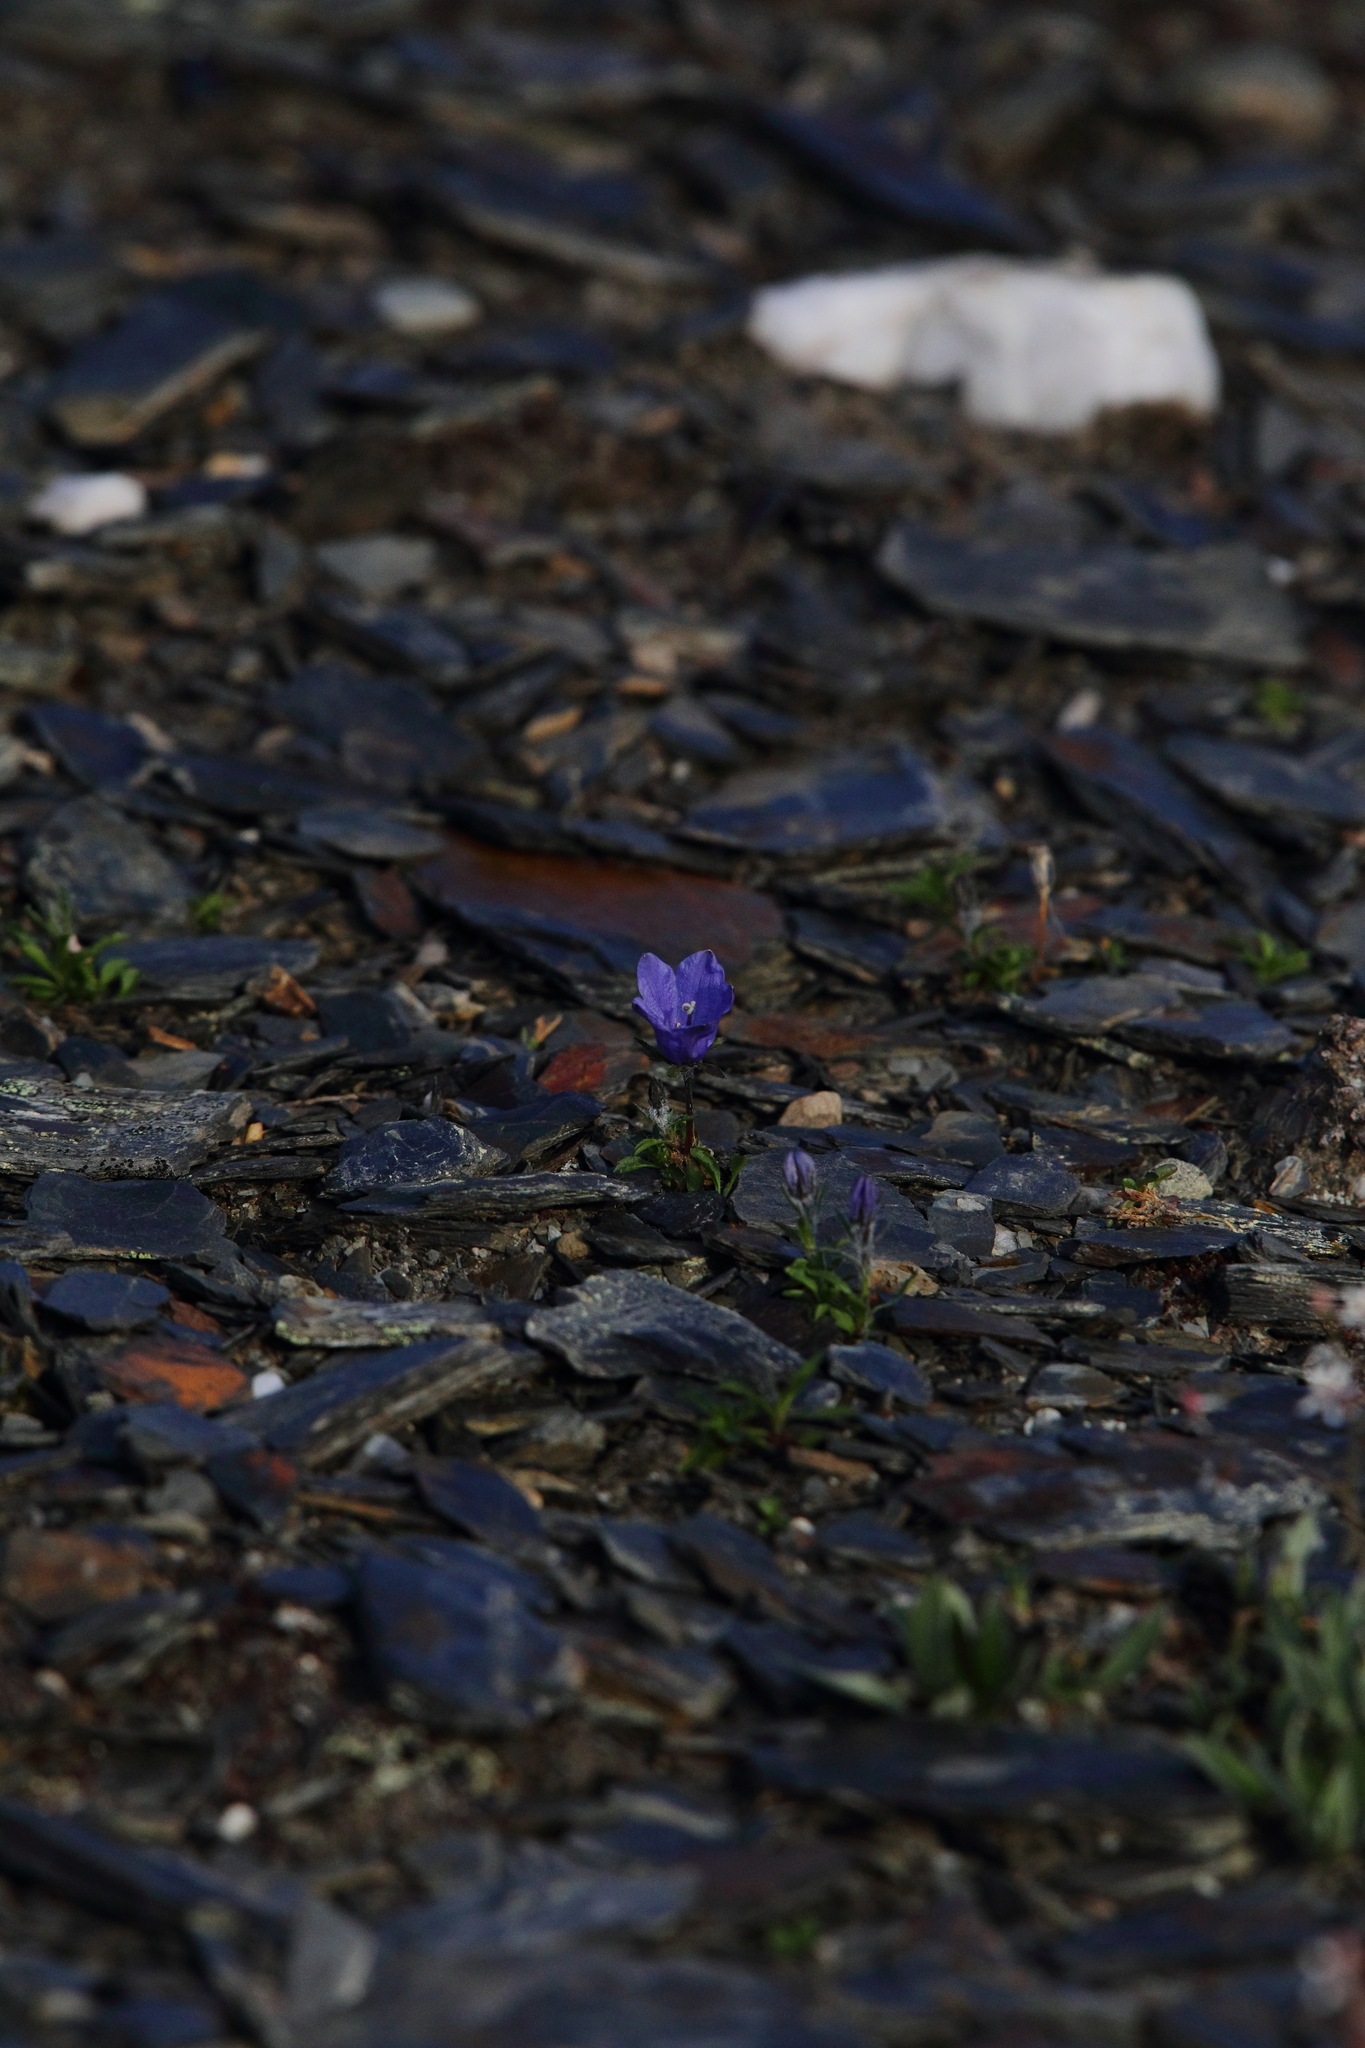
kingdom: Plantae
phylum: Tracheophyta
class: Magnoliopsida
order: Asterales
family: Campanulaceae
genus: Campanula
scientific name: Campanula lasiocarpa
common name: Mountain harebell
